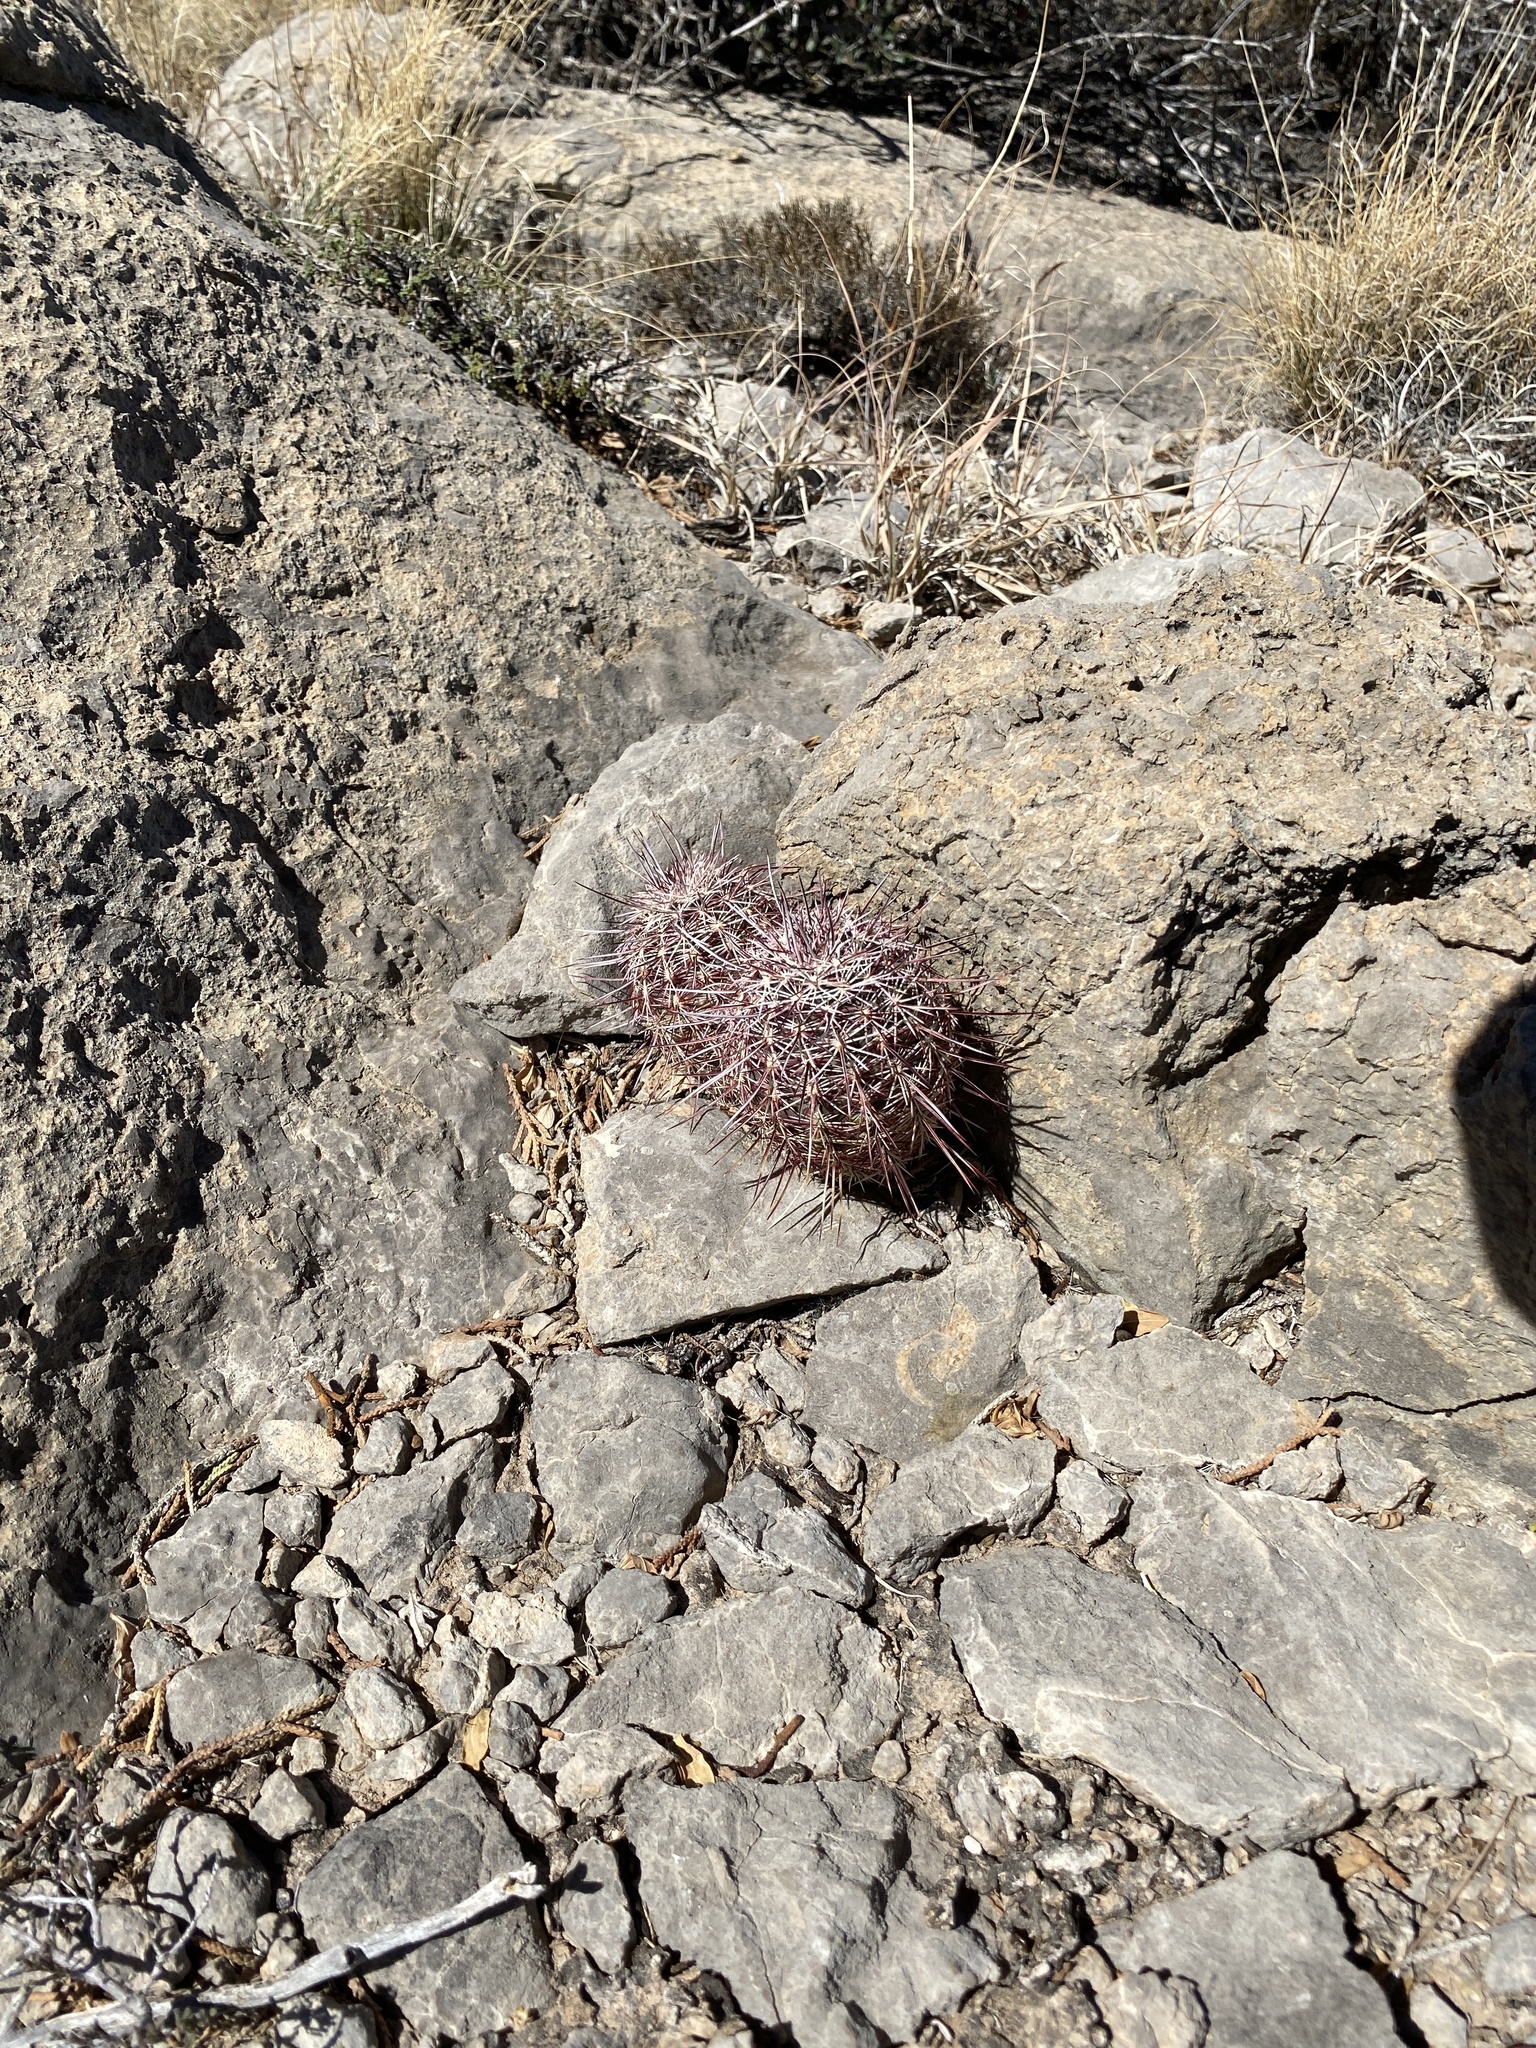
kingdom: Plantae
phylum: Tracheophyta
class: Magnoliopsida
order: Caryophyllales
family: Cactaceae
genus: Echinocereus
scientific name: Echinocereus viridiflorus
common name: Nylon hedgehog cactus
